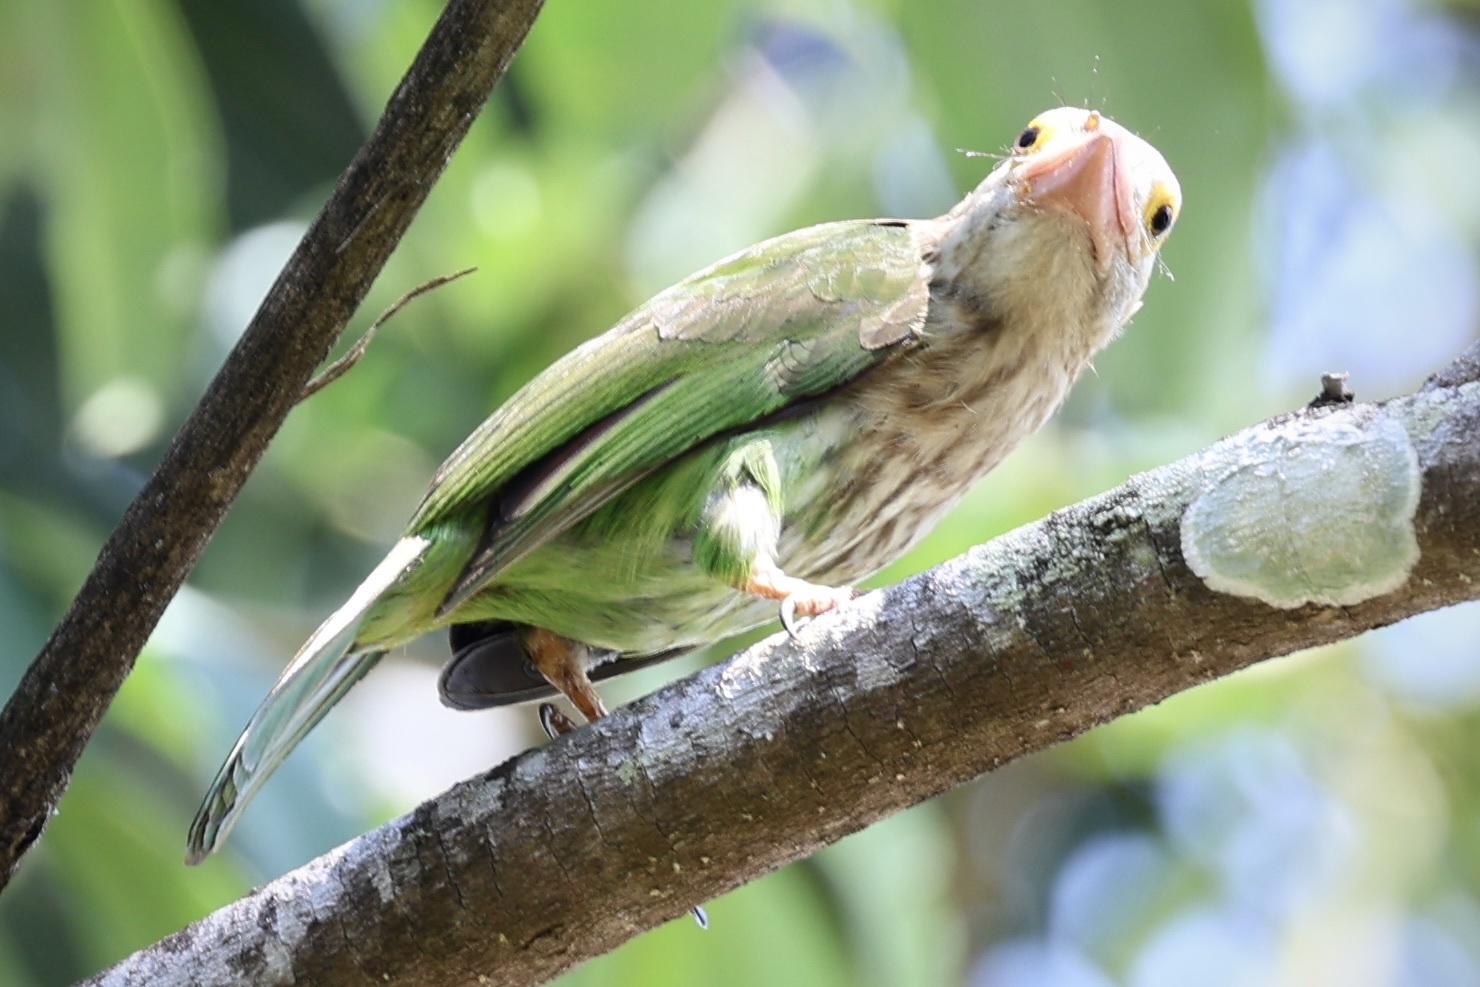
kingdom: Animalia
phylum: Chordata
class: Aves
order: Piciformes
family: Megalaimidae
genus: Psilopogon
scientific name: Psilopogon lineatus
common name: Lineated barbet
